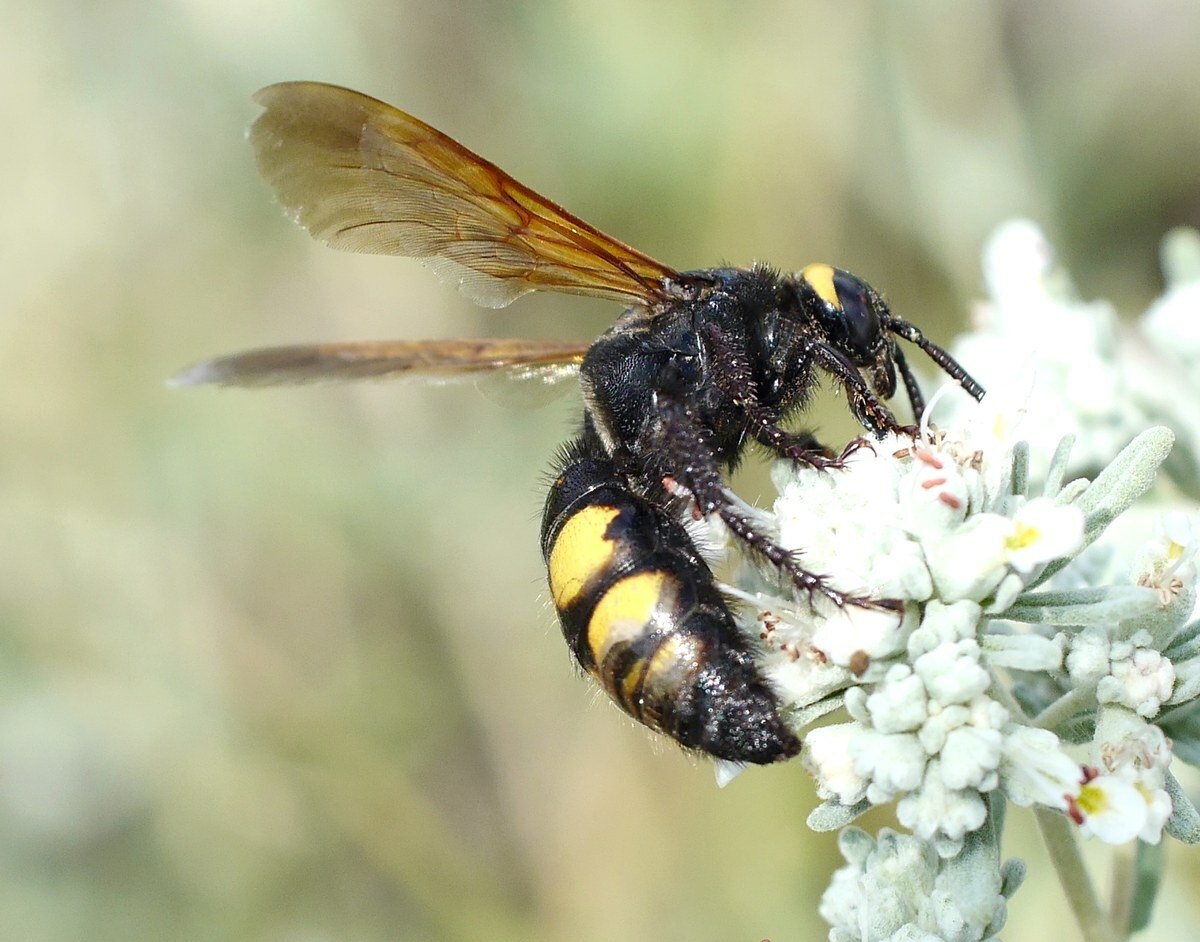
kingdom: Animalia
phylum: Arthropoda
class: Insecta
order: Hymenoptera
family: Scoliidae
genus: Scolia
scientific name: Scolia fuciformis
